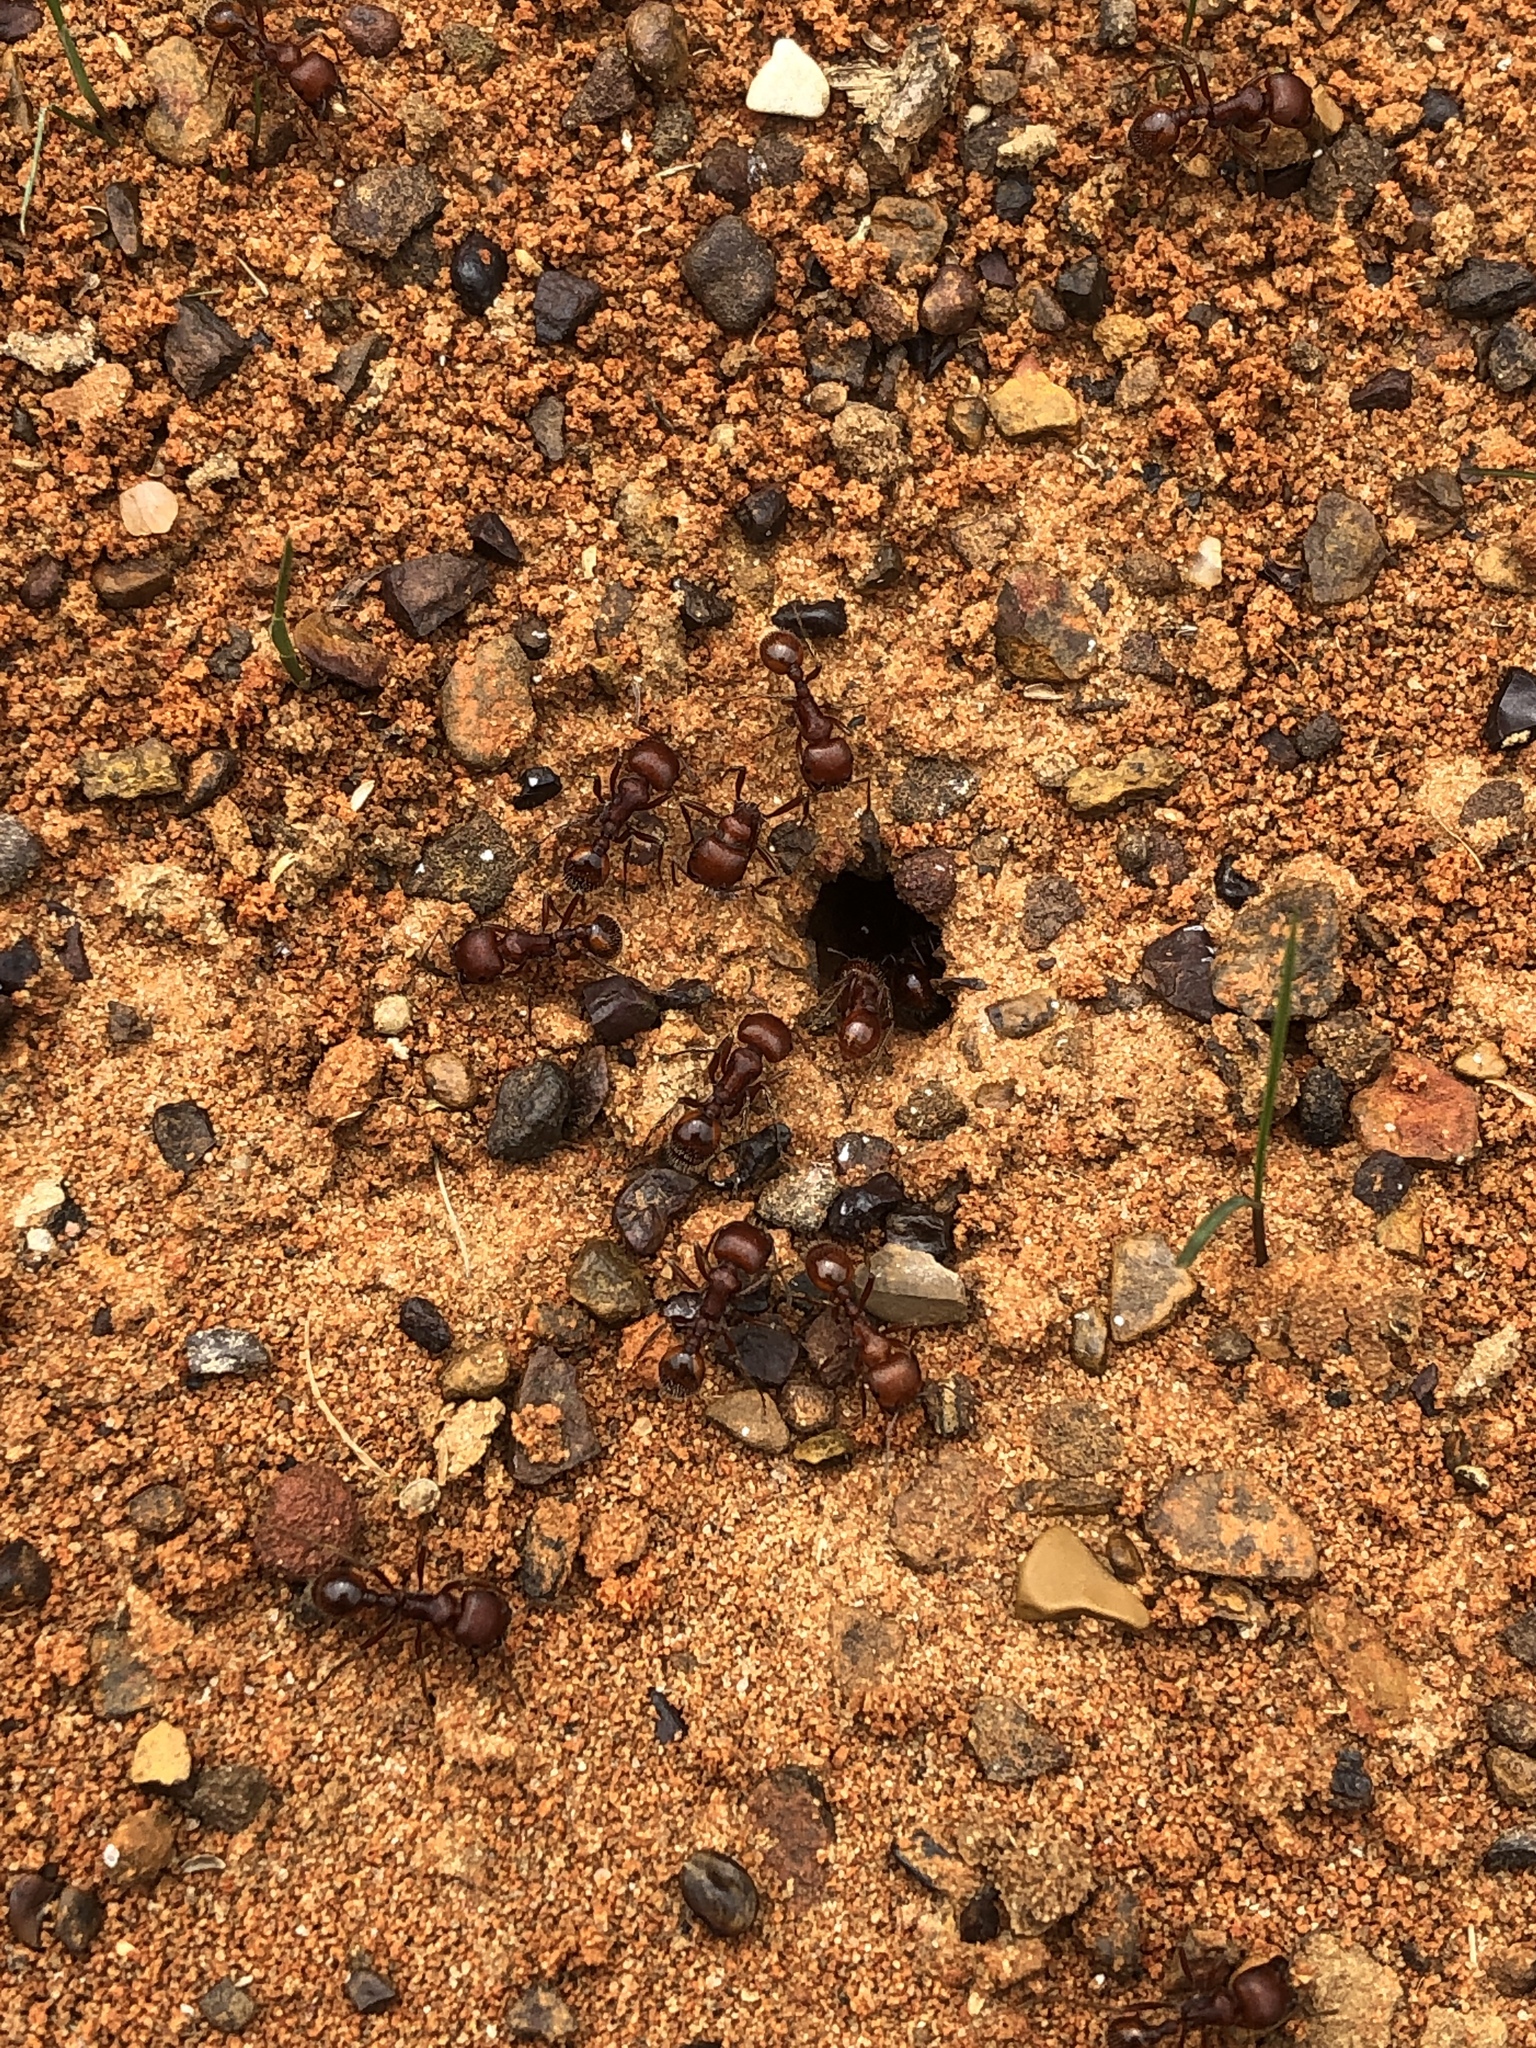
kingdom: Animalia
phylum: Arthropoda
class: Insecta
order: Hymenoptera
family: Formicidae
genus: Pogonomyrmex
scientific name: Pogonomyrmex barbatus
